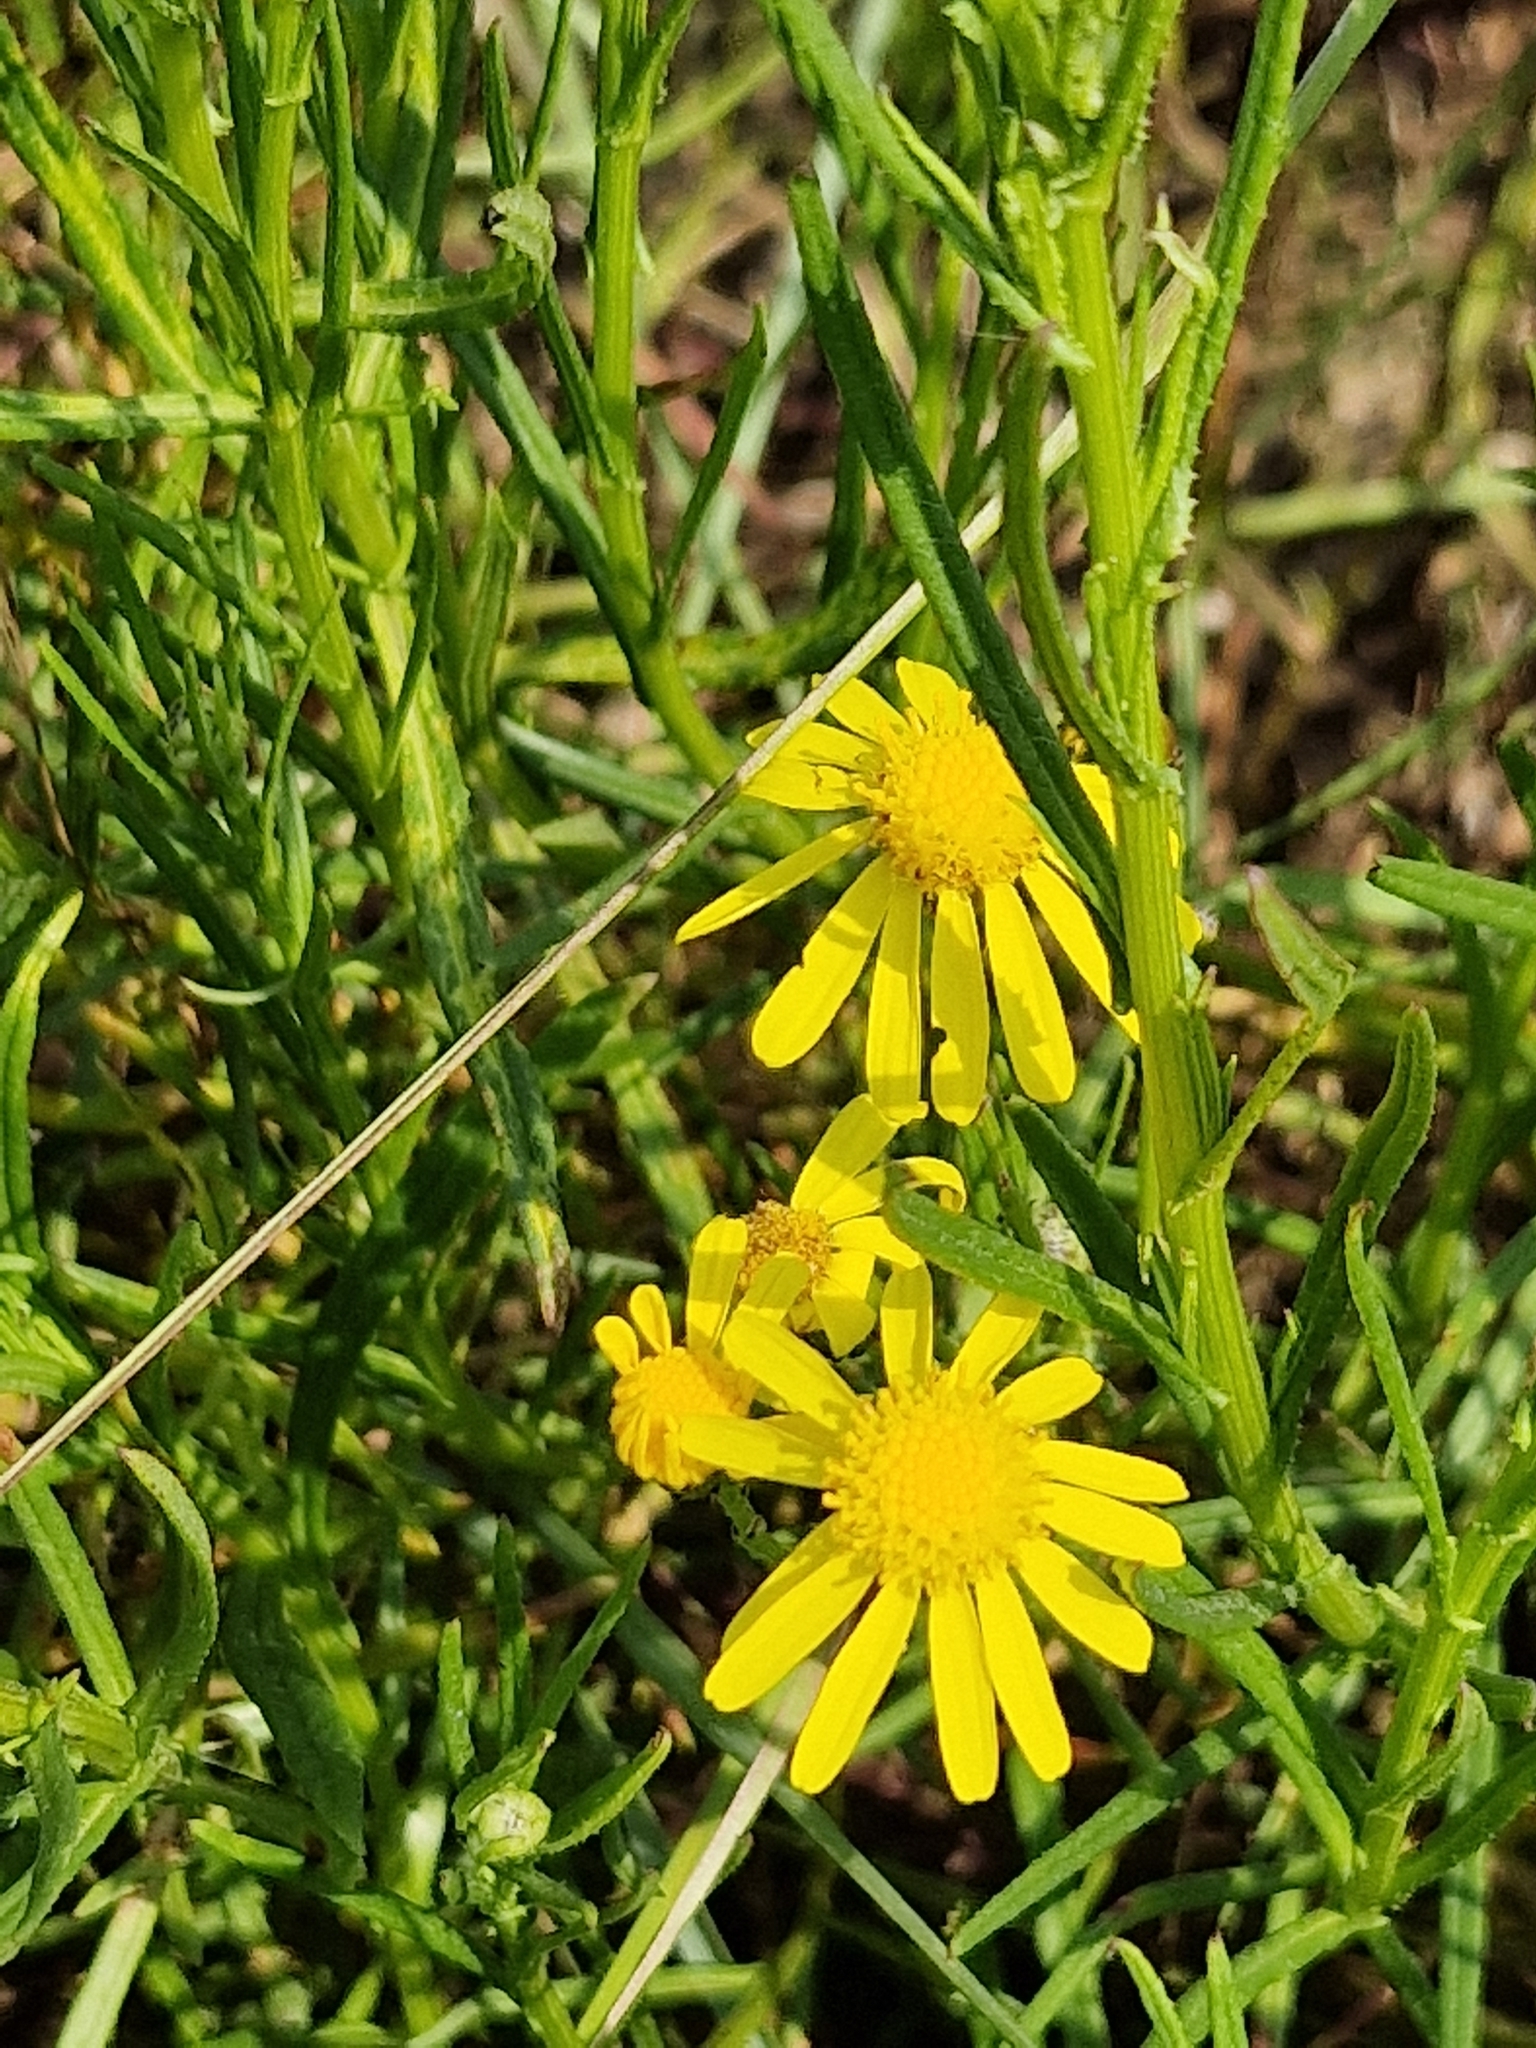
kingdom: Plantae
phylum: Tracheophyta
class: Magnoliopsida
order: Asterales
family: Asteraceae
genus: Senecio
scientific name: Senecio inaequidens
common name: Narrow-leaved ragwort
